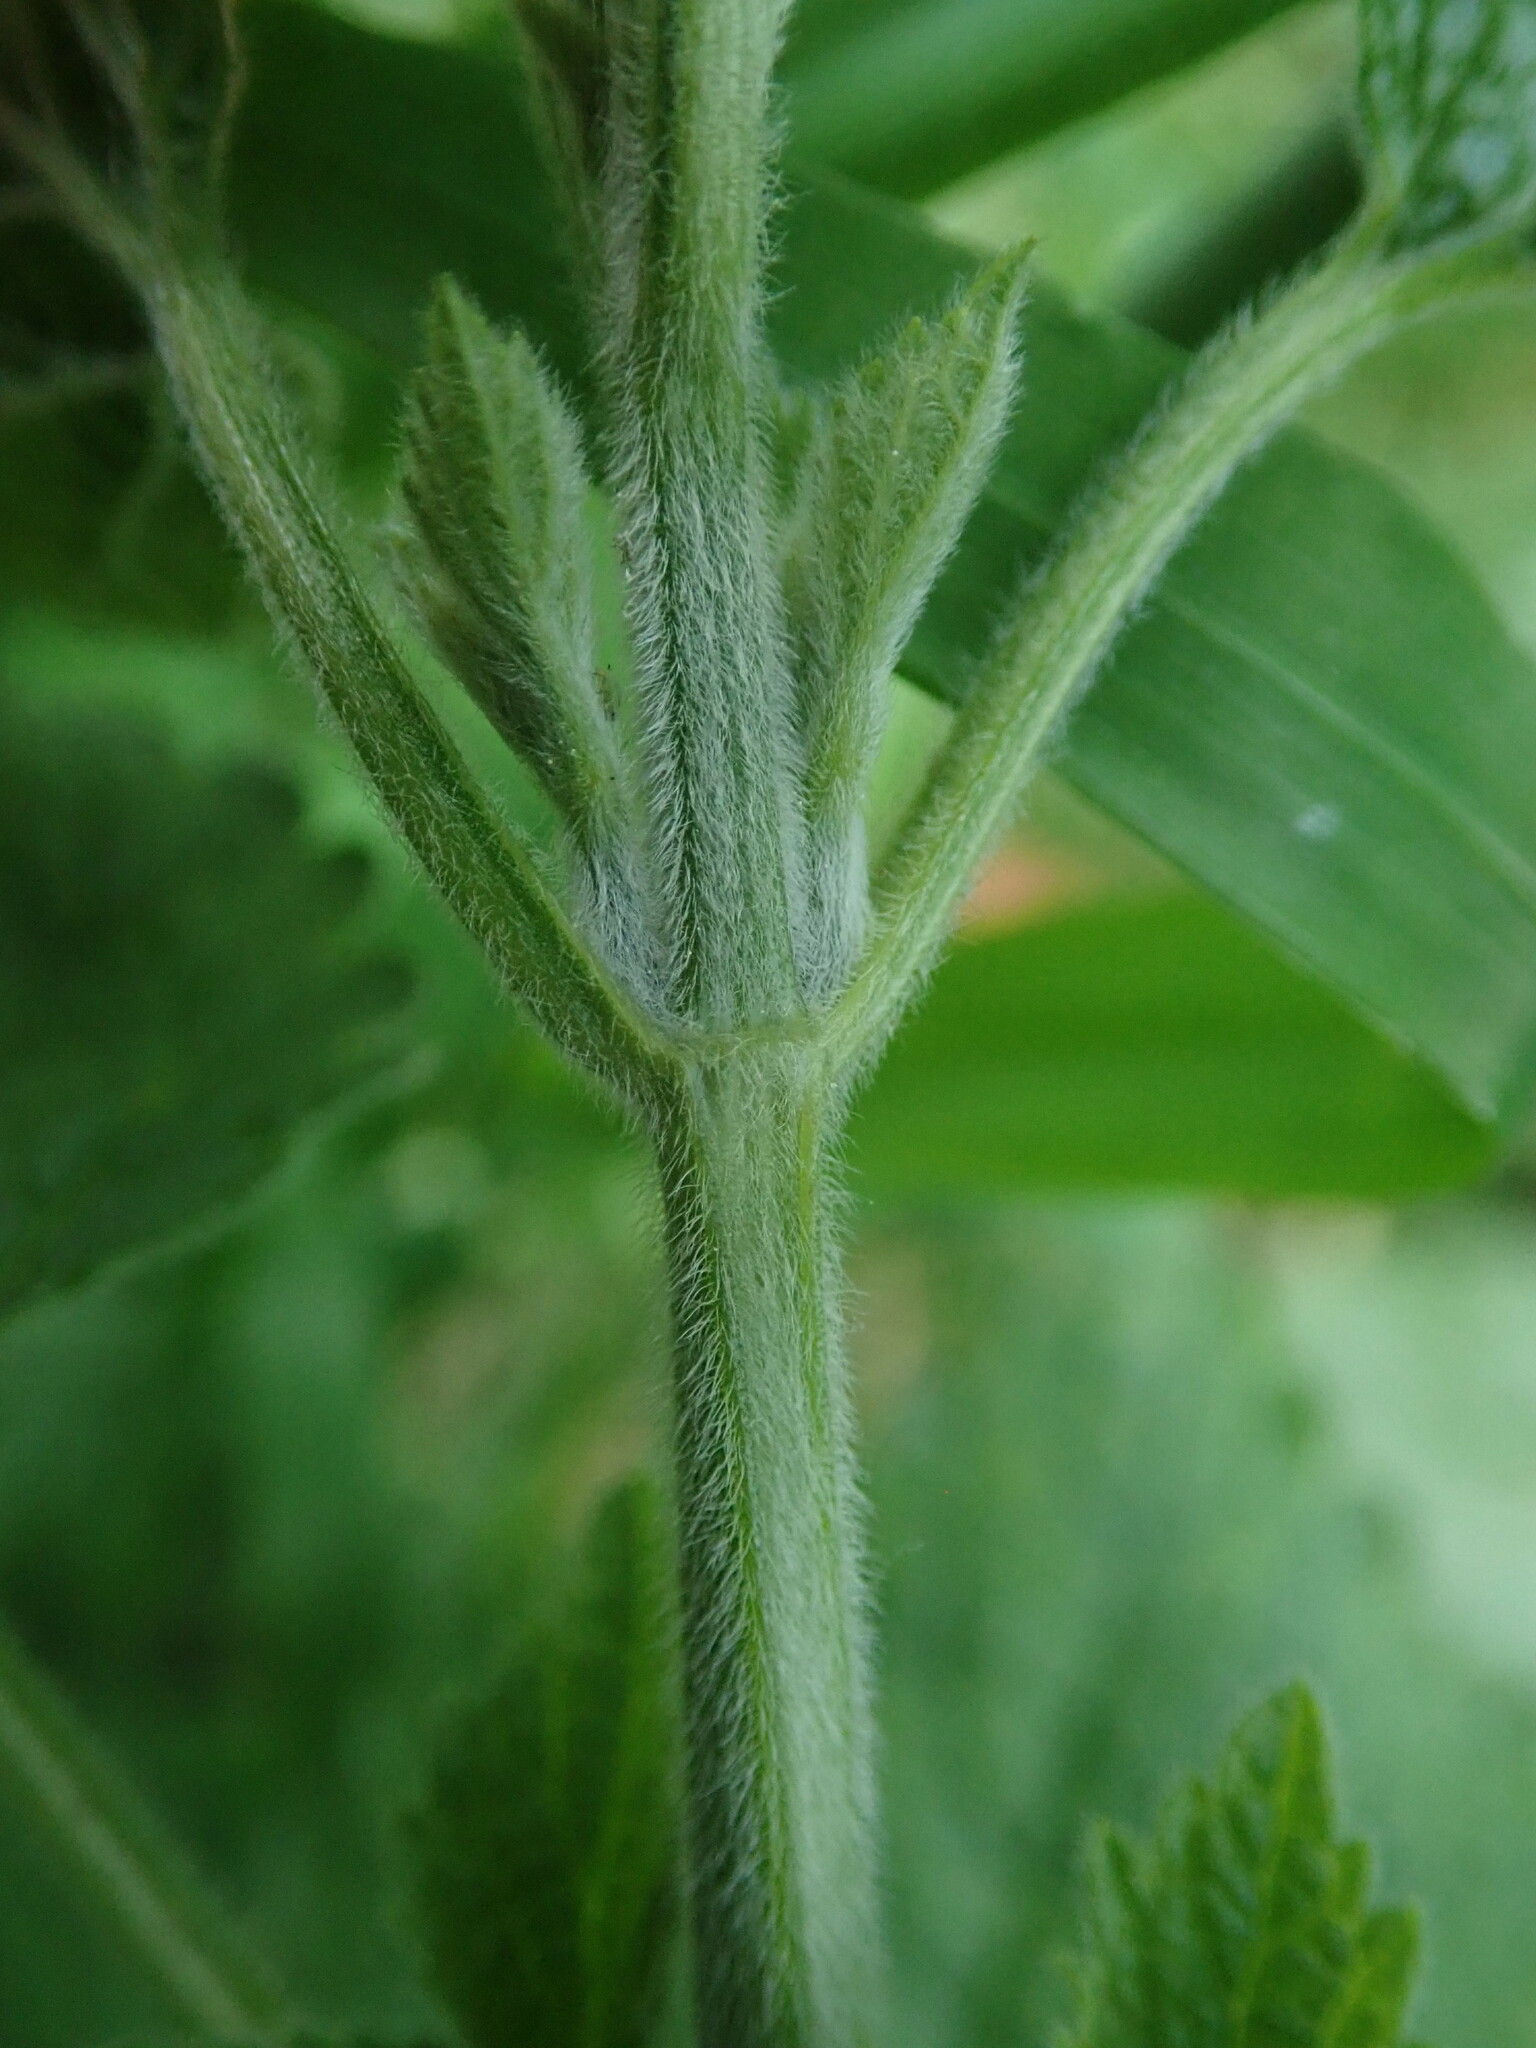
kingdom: Plantae
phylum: Tracheophyta
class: Magnoliopsida
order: Lamiales
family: Lamiaceae
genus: Ballota
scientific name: Ballota nigra
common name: Black horehound
